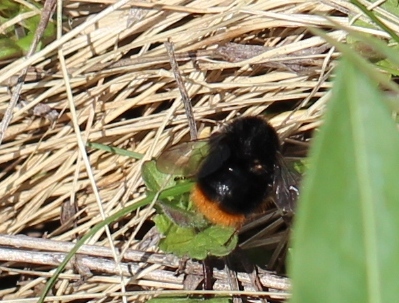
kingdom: Animalia
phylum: Arthropoda
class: Insecta
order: Hymenoptera
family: Apidae
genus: Bombus
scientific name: Bombus
